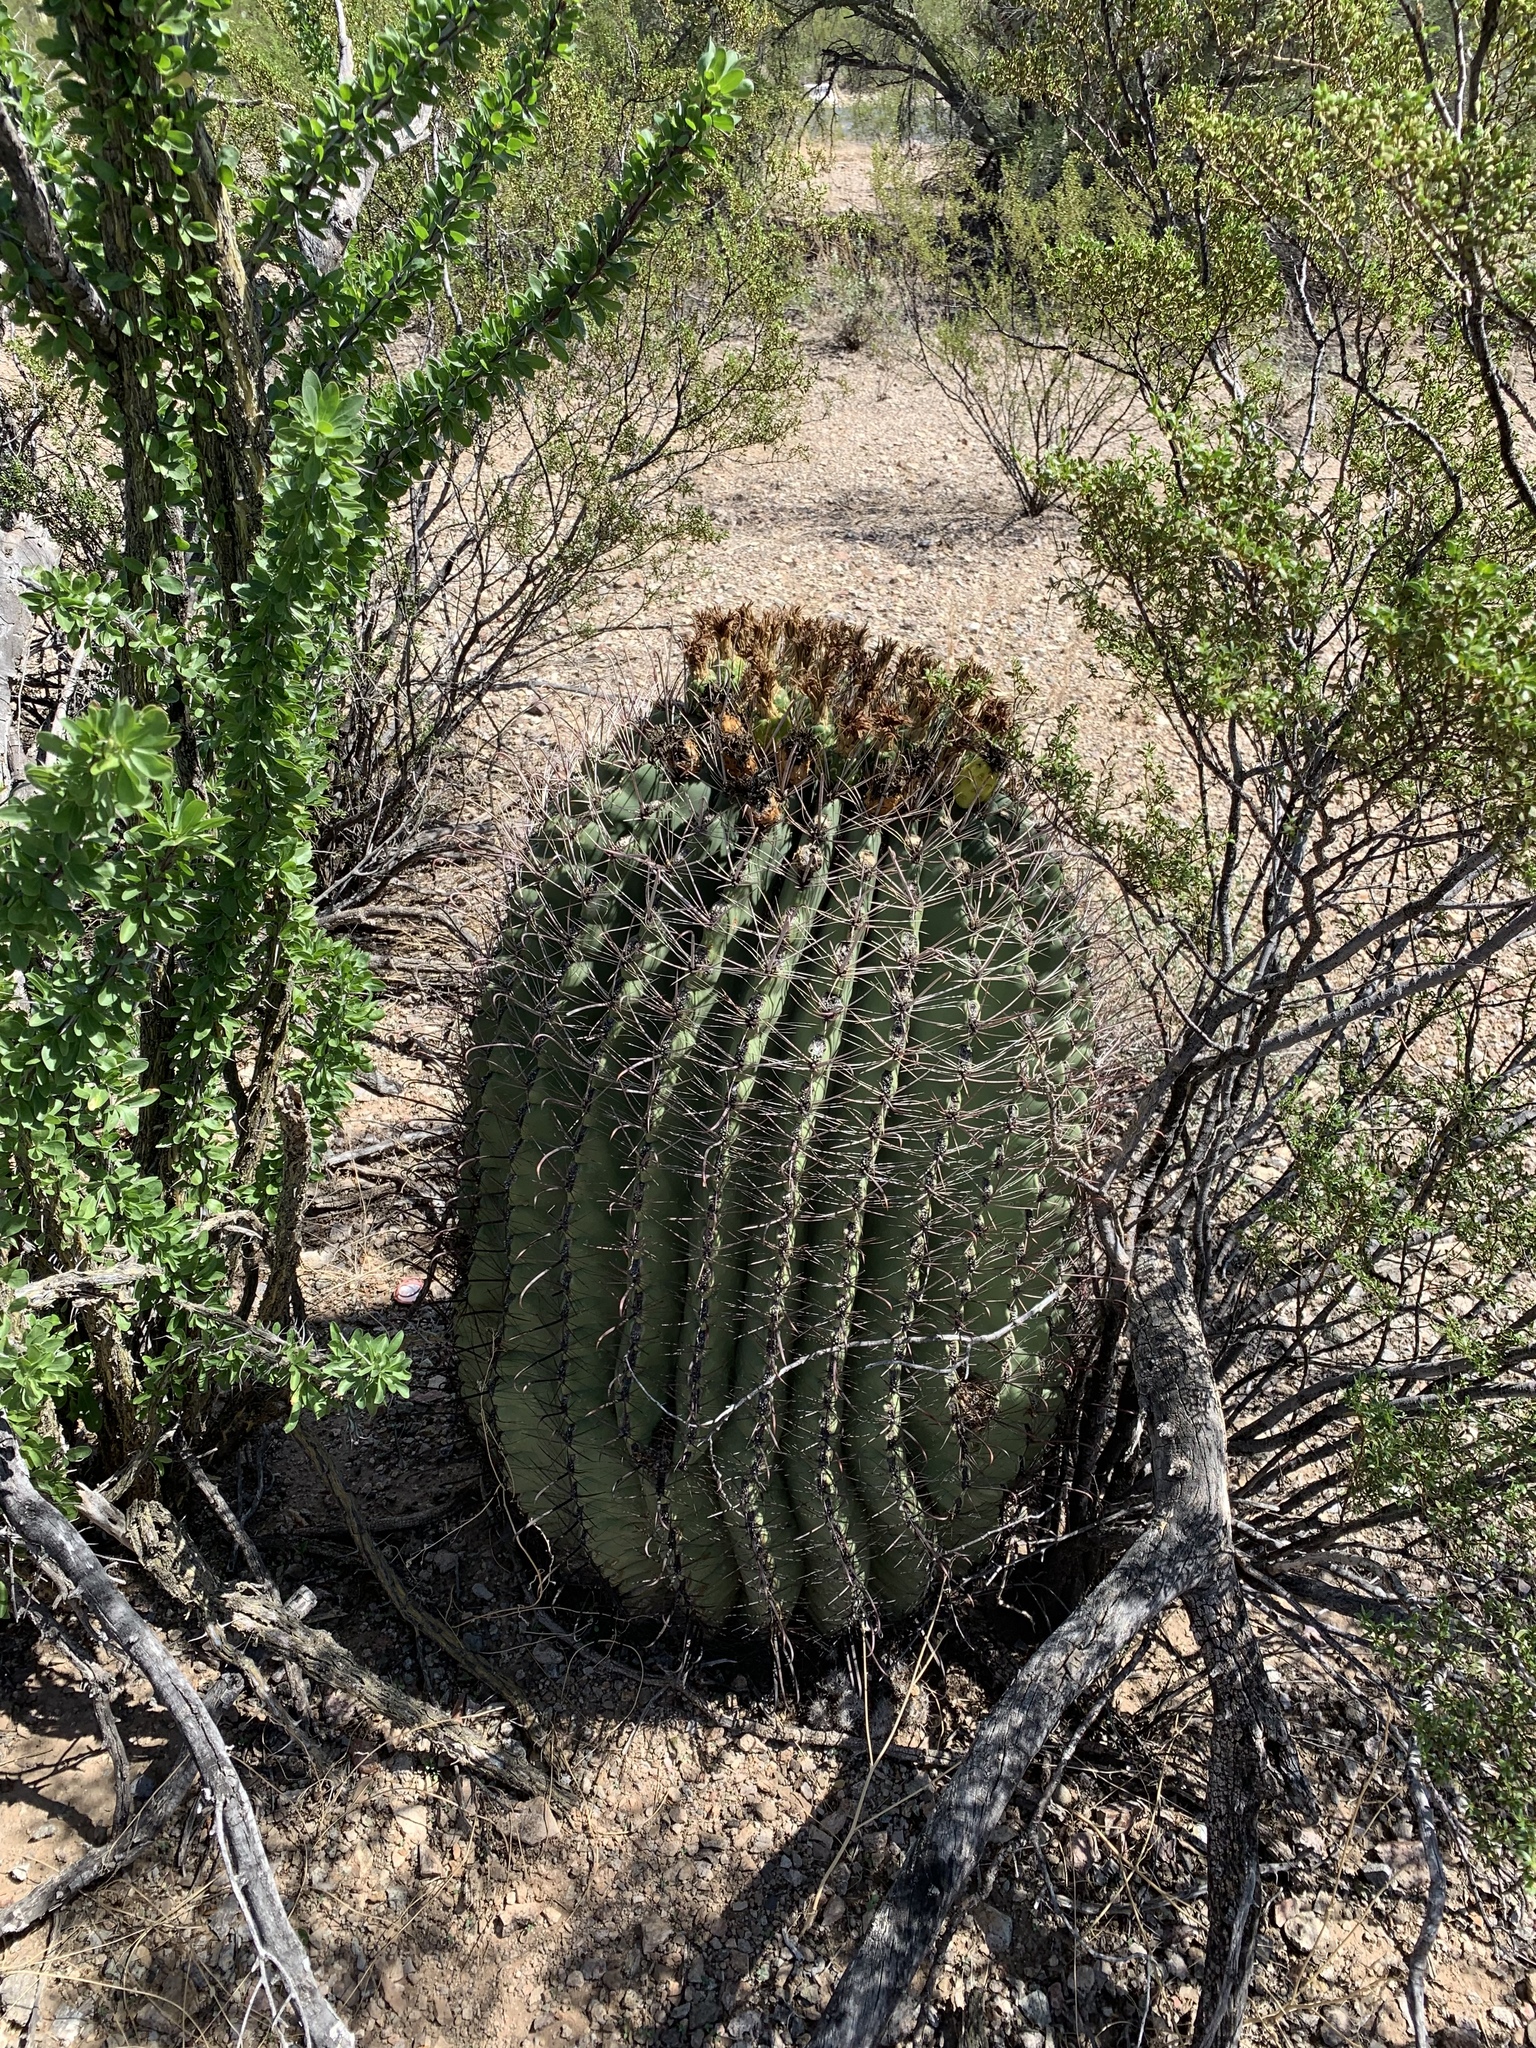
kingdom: Plantae
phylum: Tracheophyta
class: Magnoliopsida
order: Caryophyllales
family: Cactaceae
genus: Ferocactus
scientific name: Ferocactus wislizeni
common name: Candy barrel cactus
